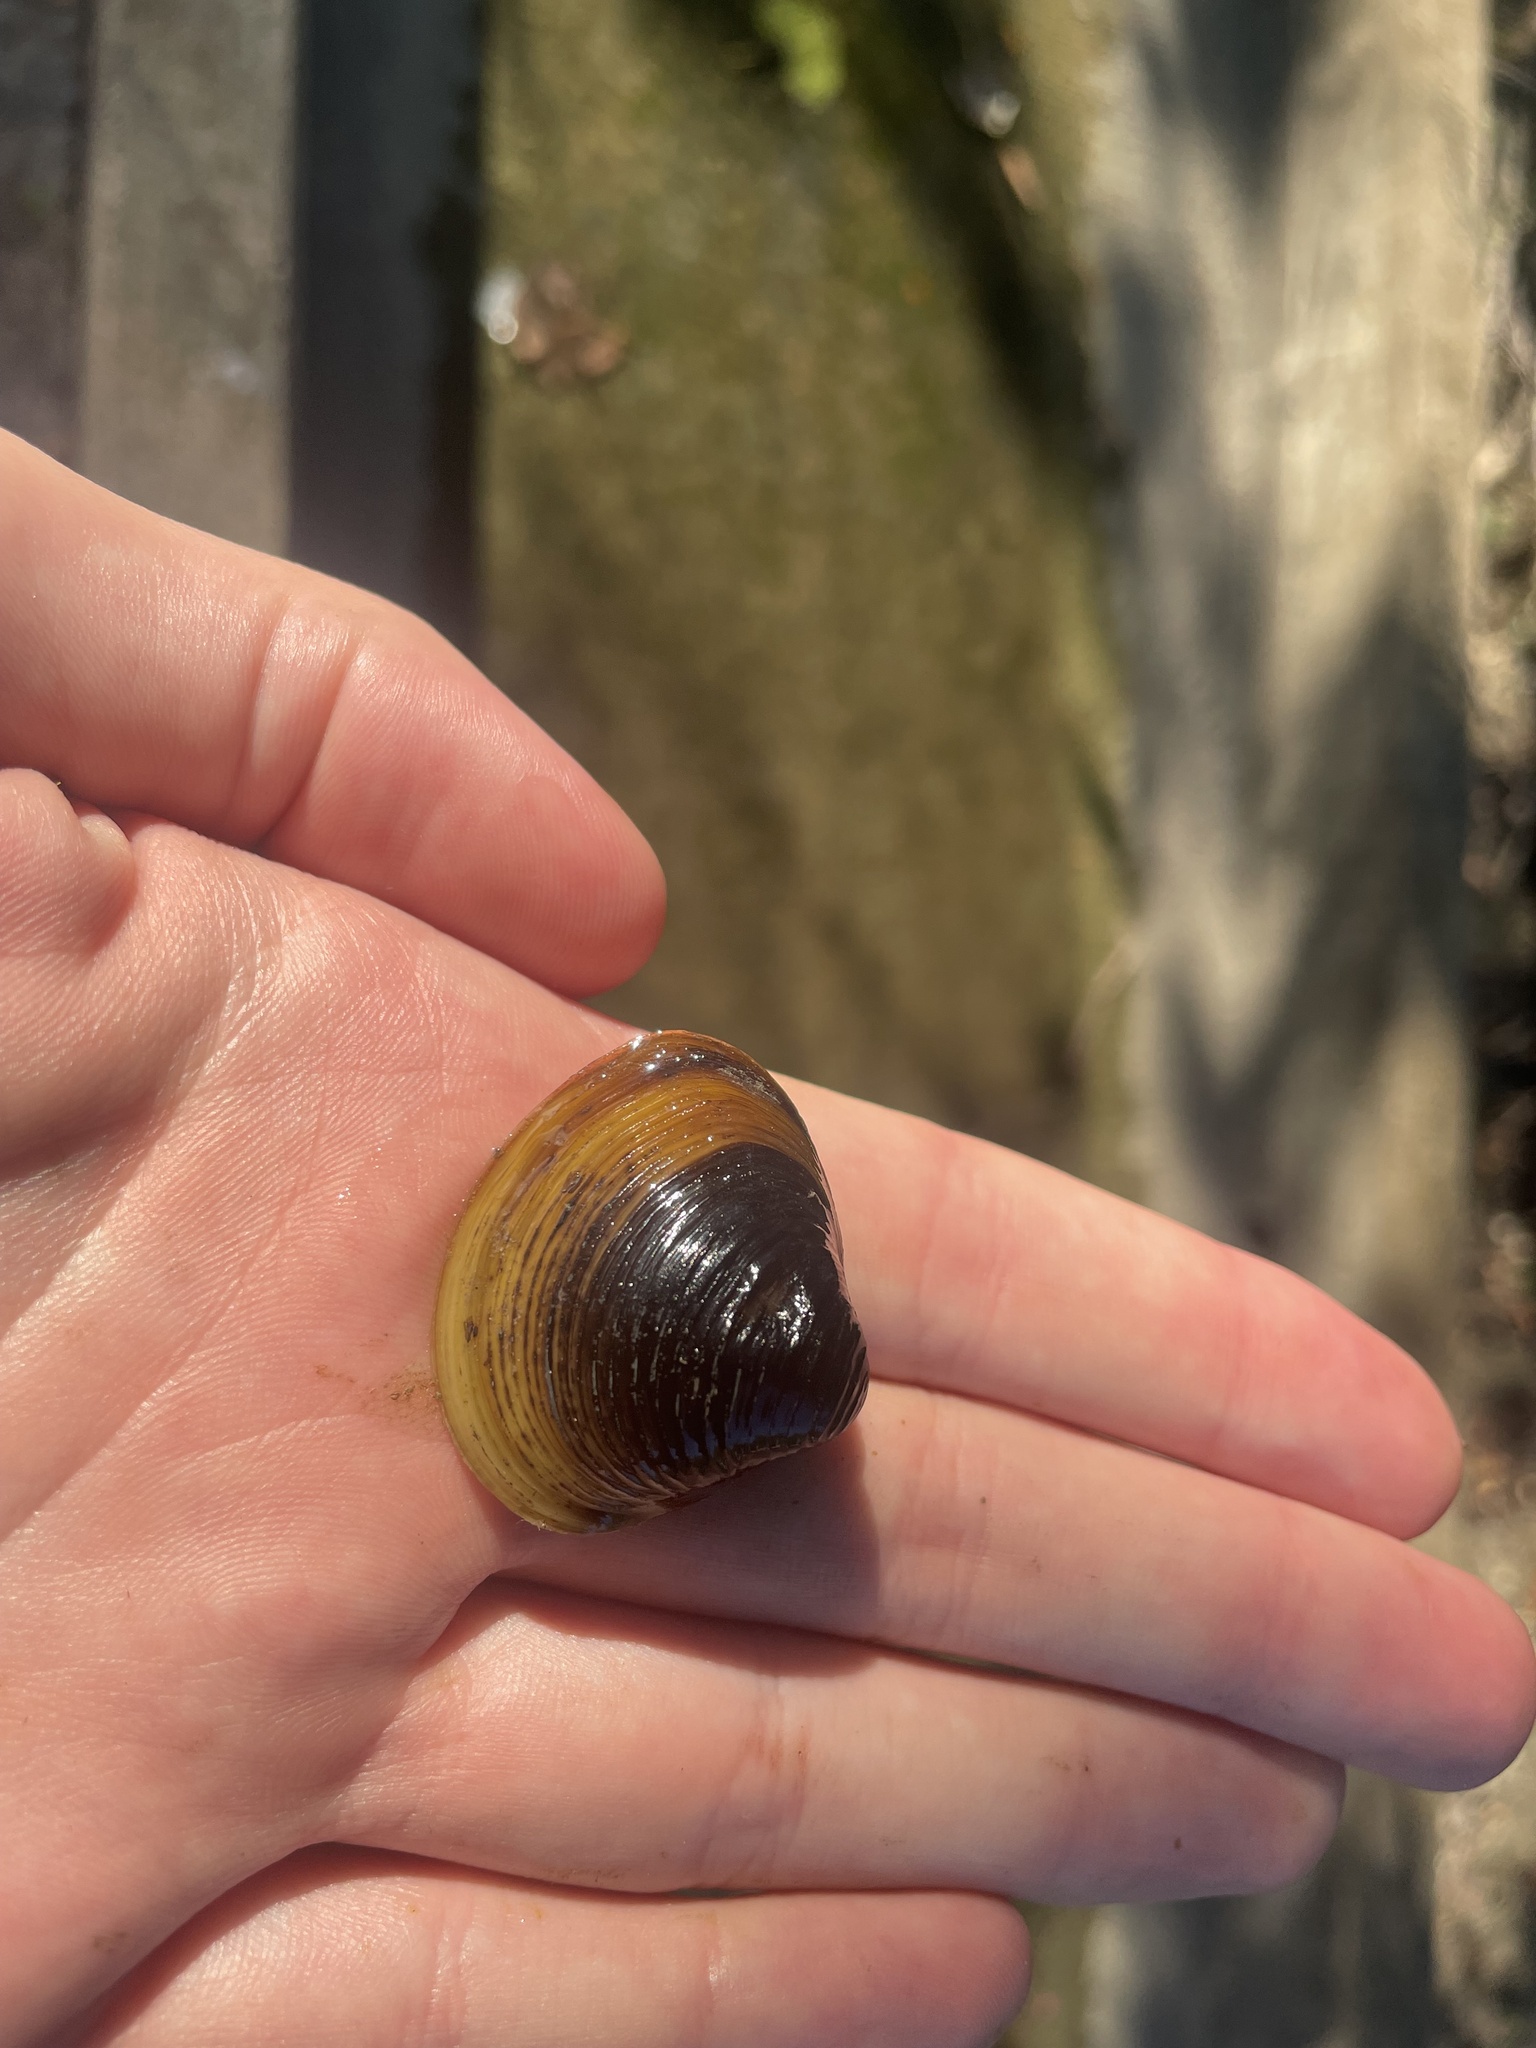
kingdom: Animalia
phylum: Mollusca
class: Bivalvia
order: Venerida
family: Cyrenidae
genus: Corbicula
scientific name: Corbicula fluminea
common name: Asian clam
